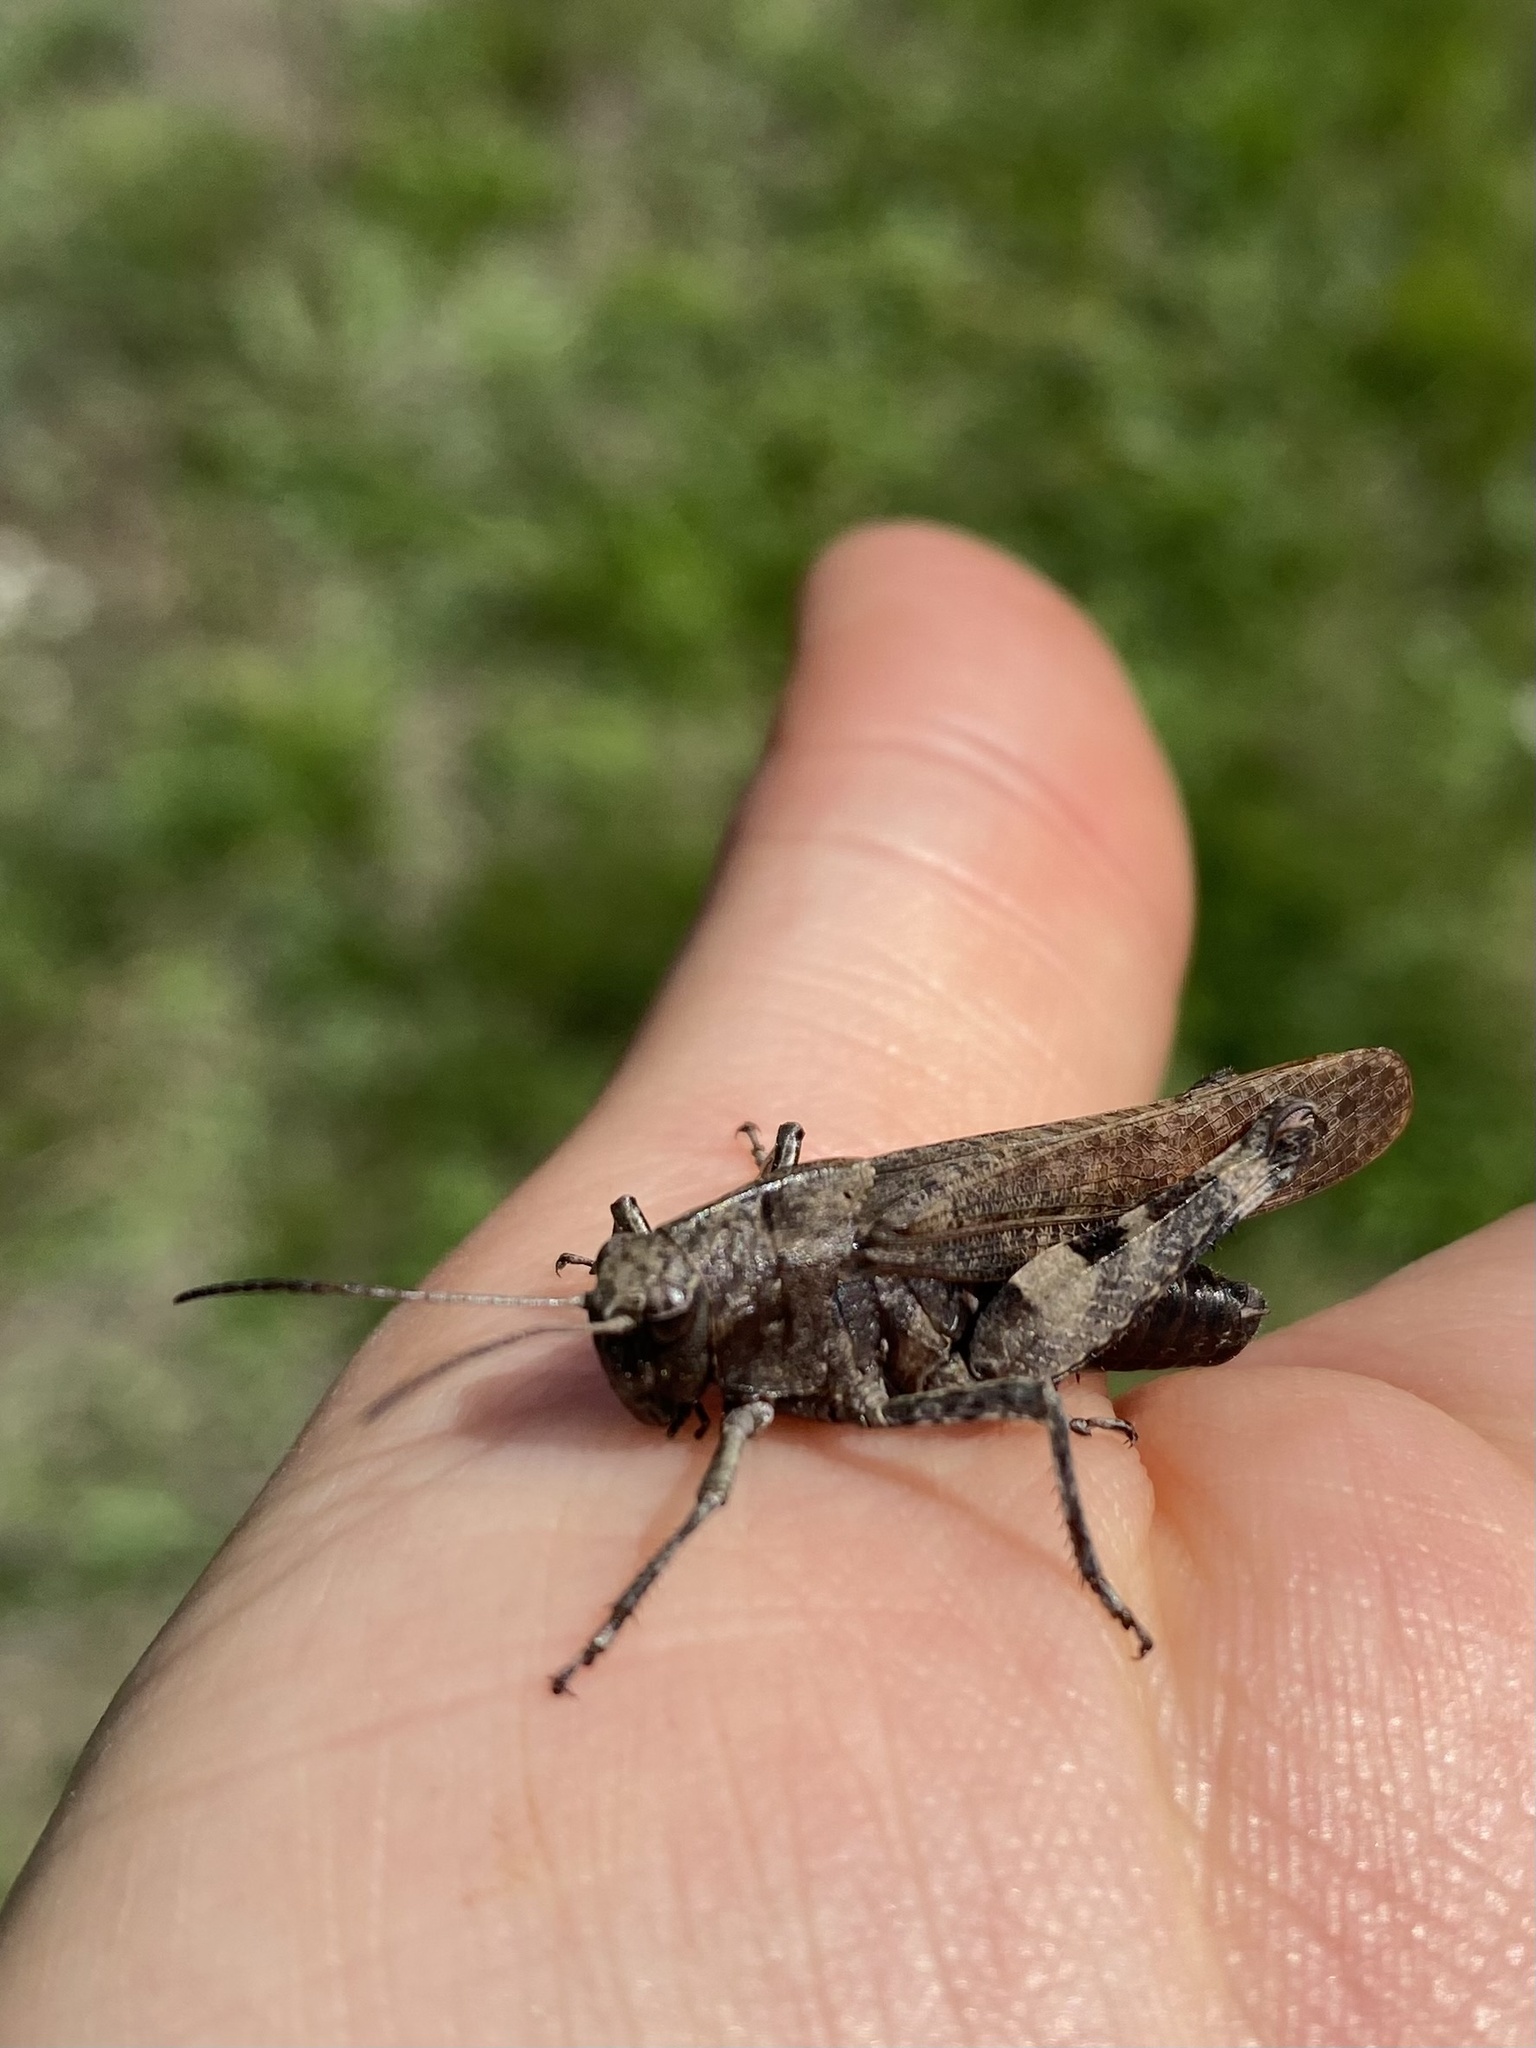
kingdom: Animalia
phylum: Arthropoda
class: Insecta
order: Orthoptera
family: Acrididae
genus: Psophus
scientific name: Psophus stridulus
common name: Rattle grasshopper
